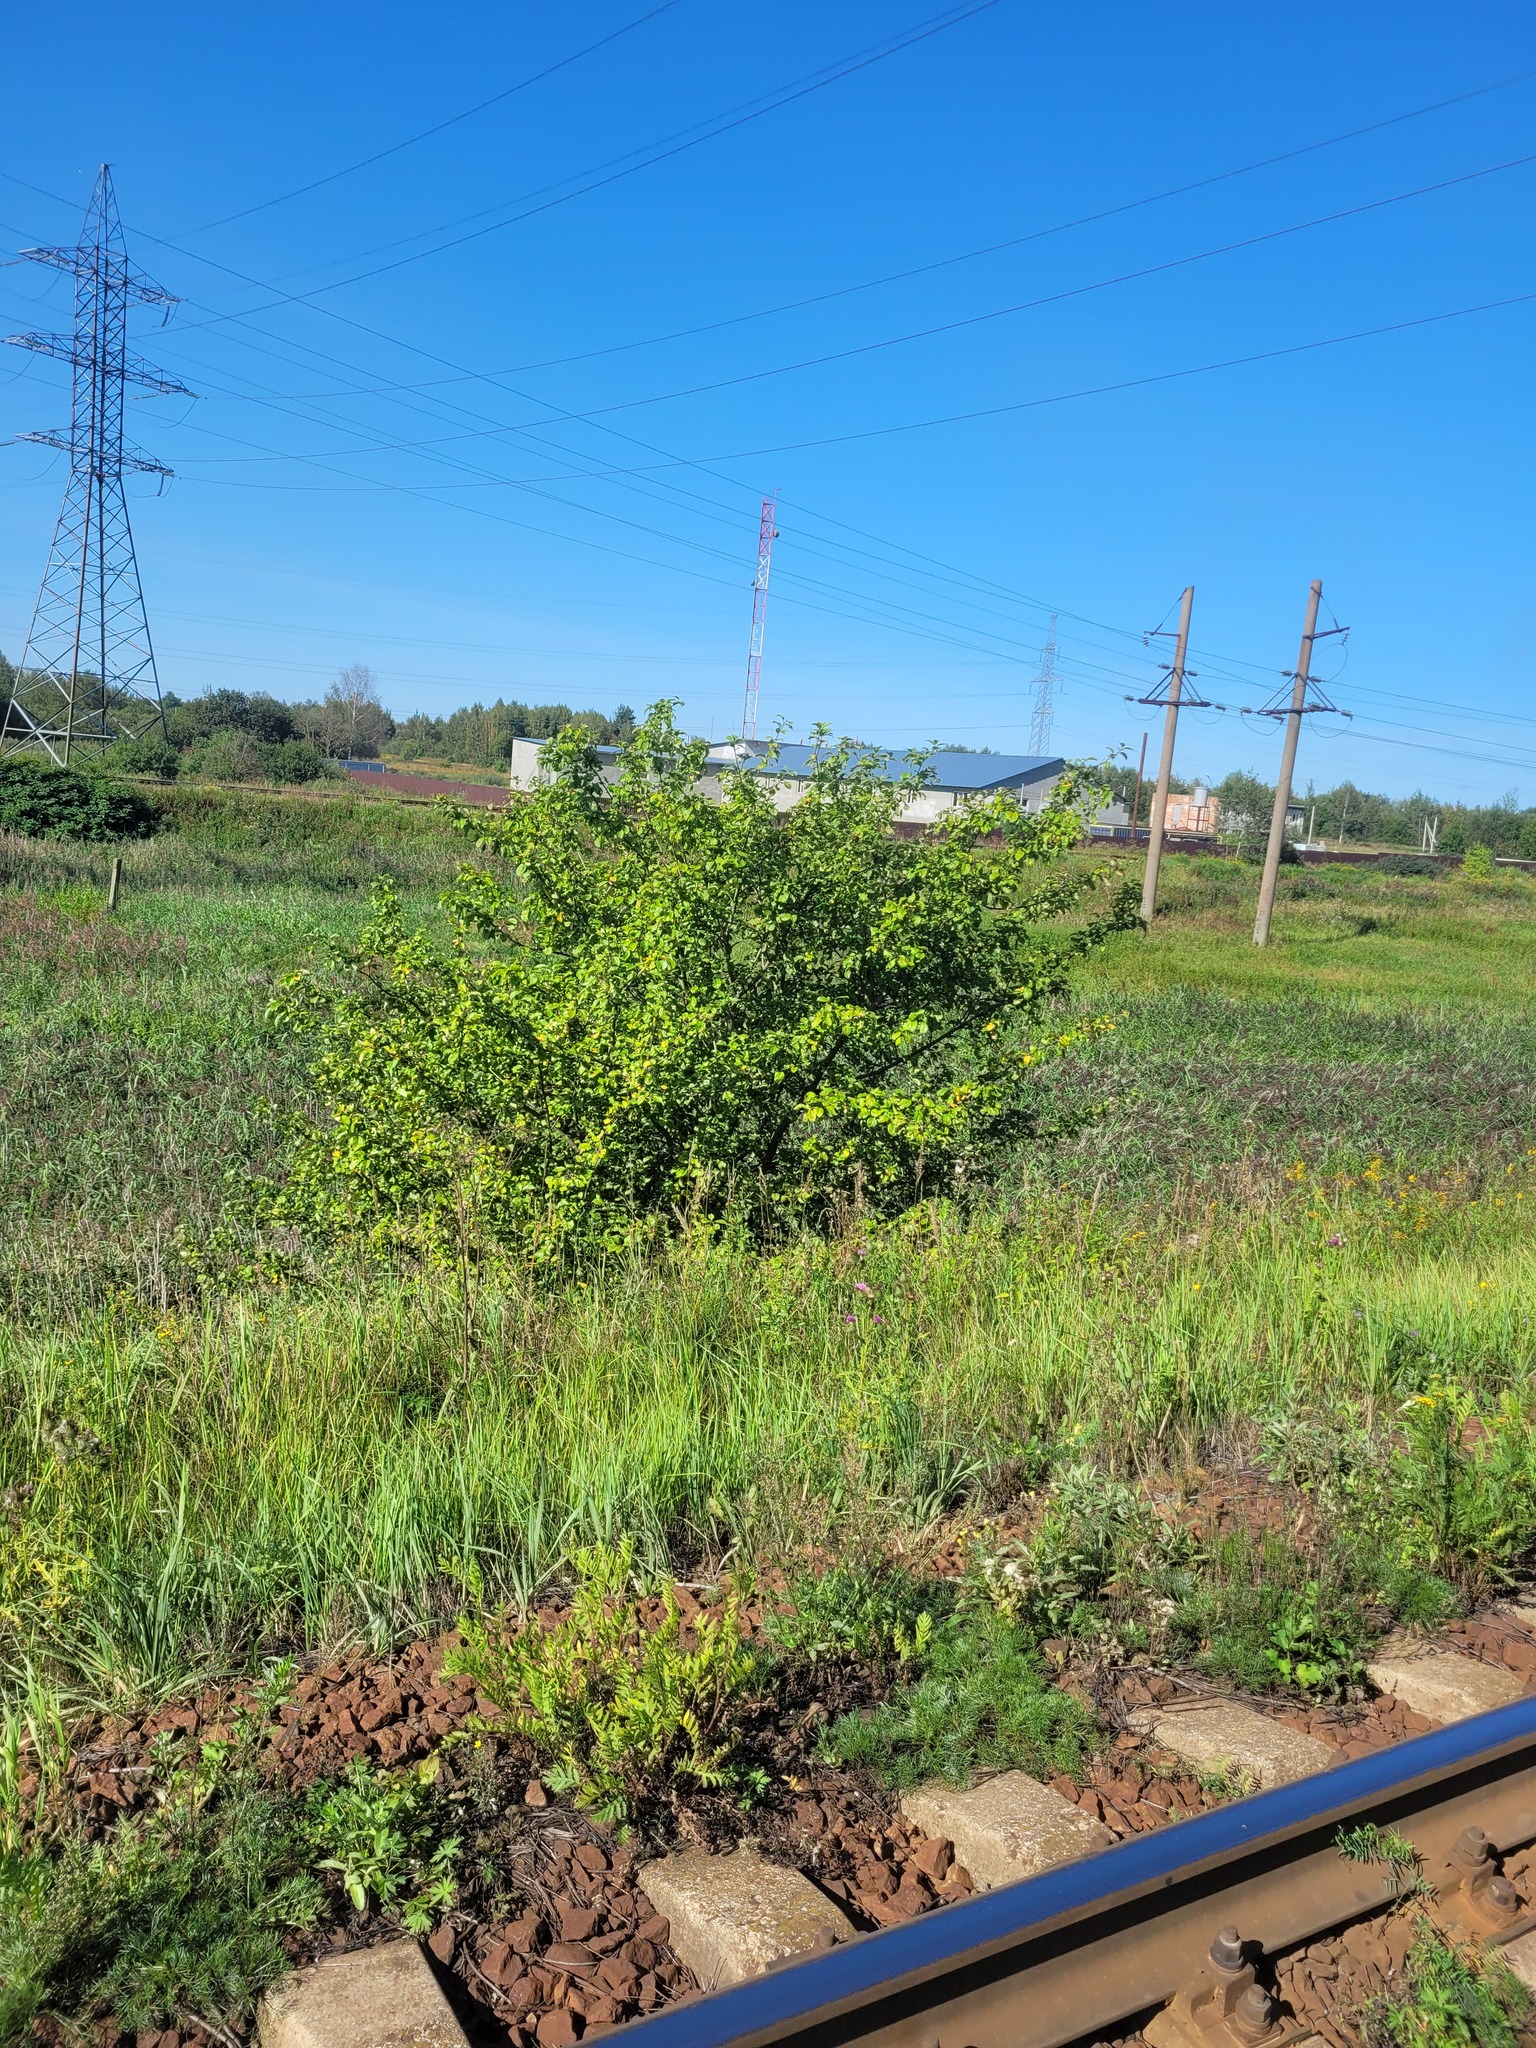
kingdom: Plantae
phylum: Tracheophyta
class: Magnoliopsida
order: Rosales
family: Rosaceae
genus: Malus
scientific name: Malus domestica
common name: Apple
